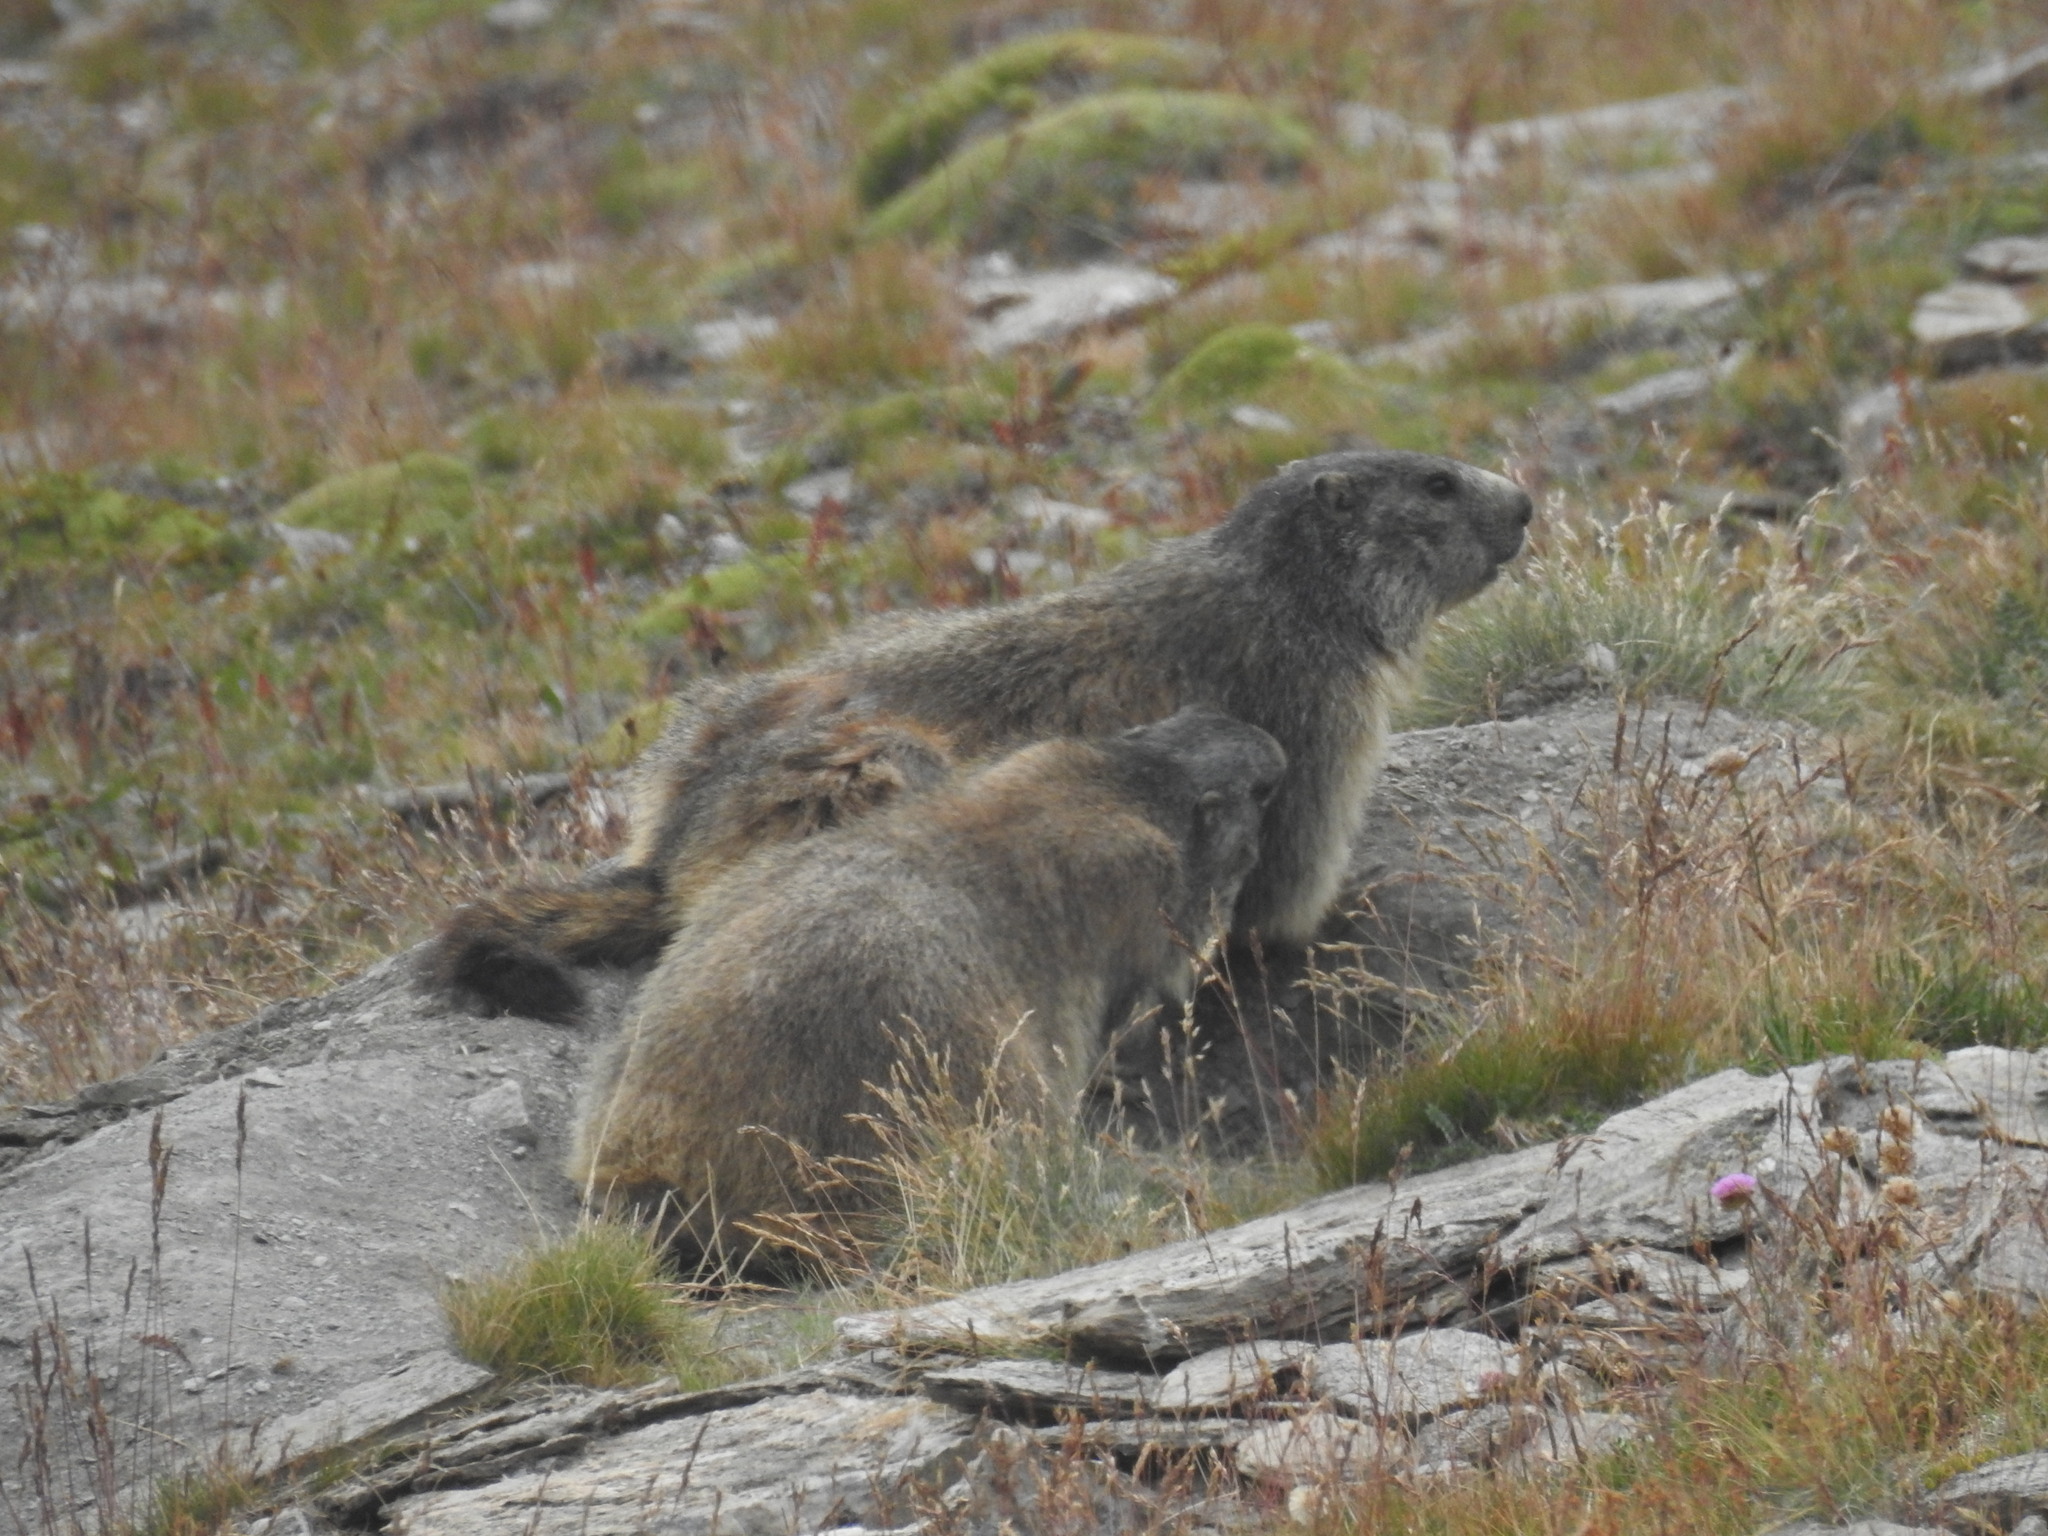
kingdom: Animalia
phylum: Chordata
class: Mammalia
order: Rodentia
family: Sciuridae
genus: Marmota
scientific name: Marmota marmota
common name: Alpine marmot
